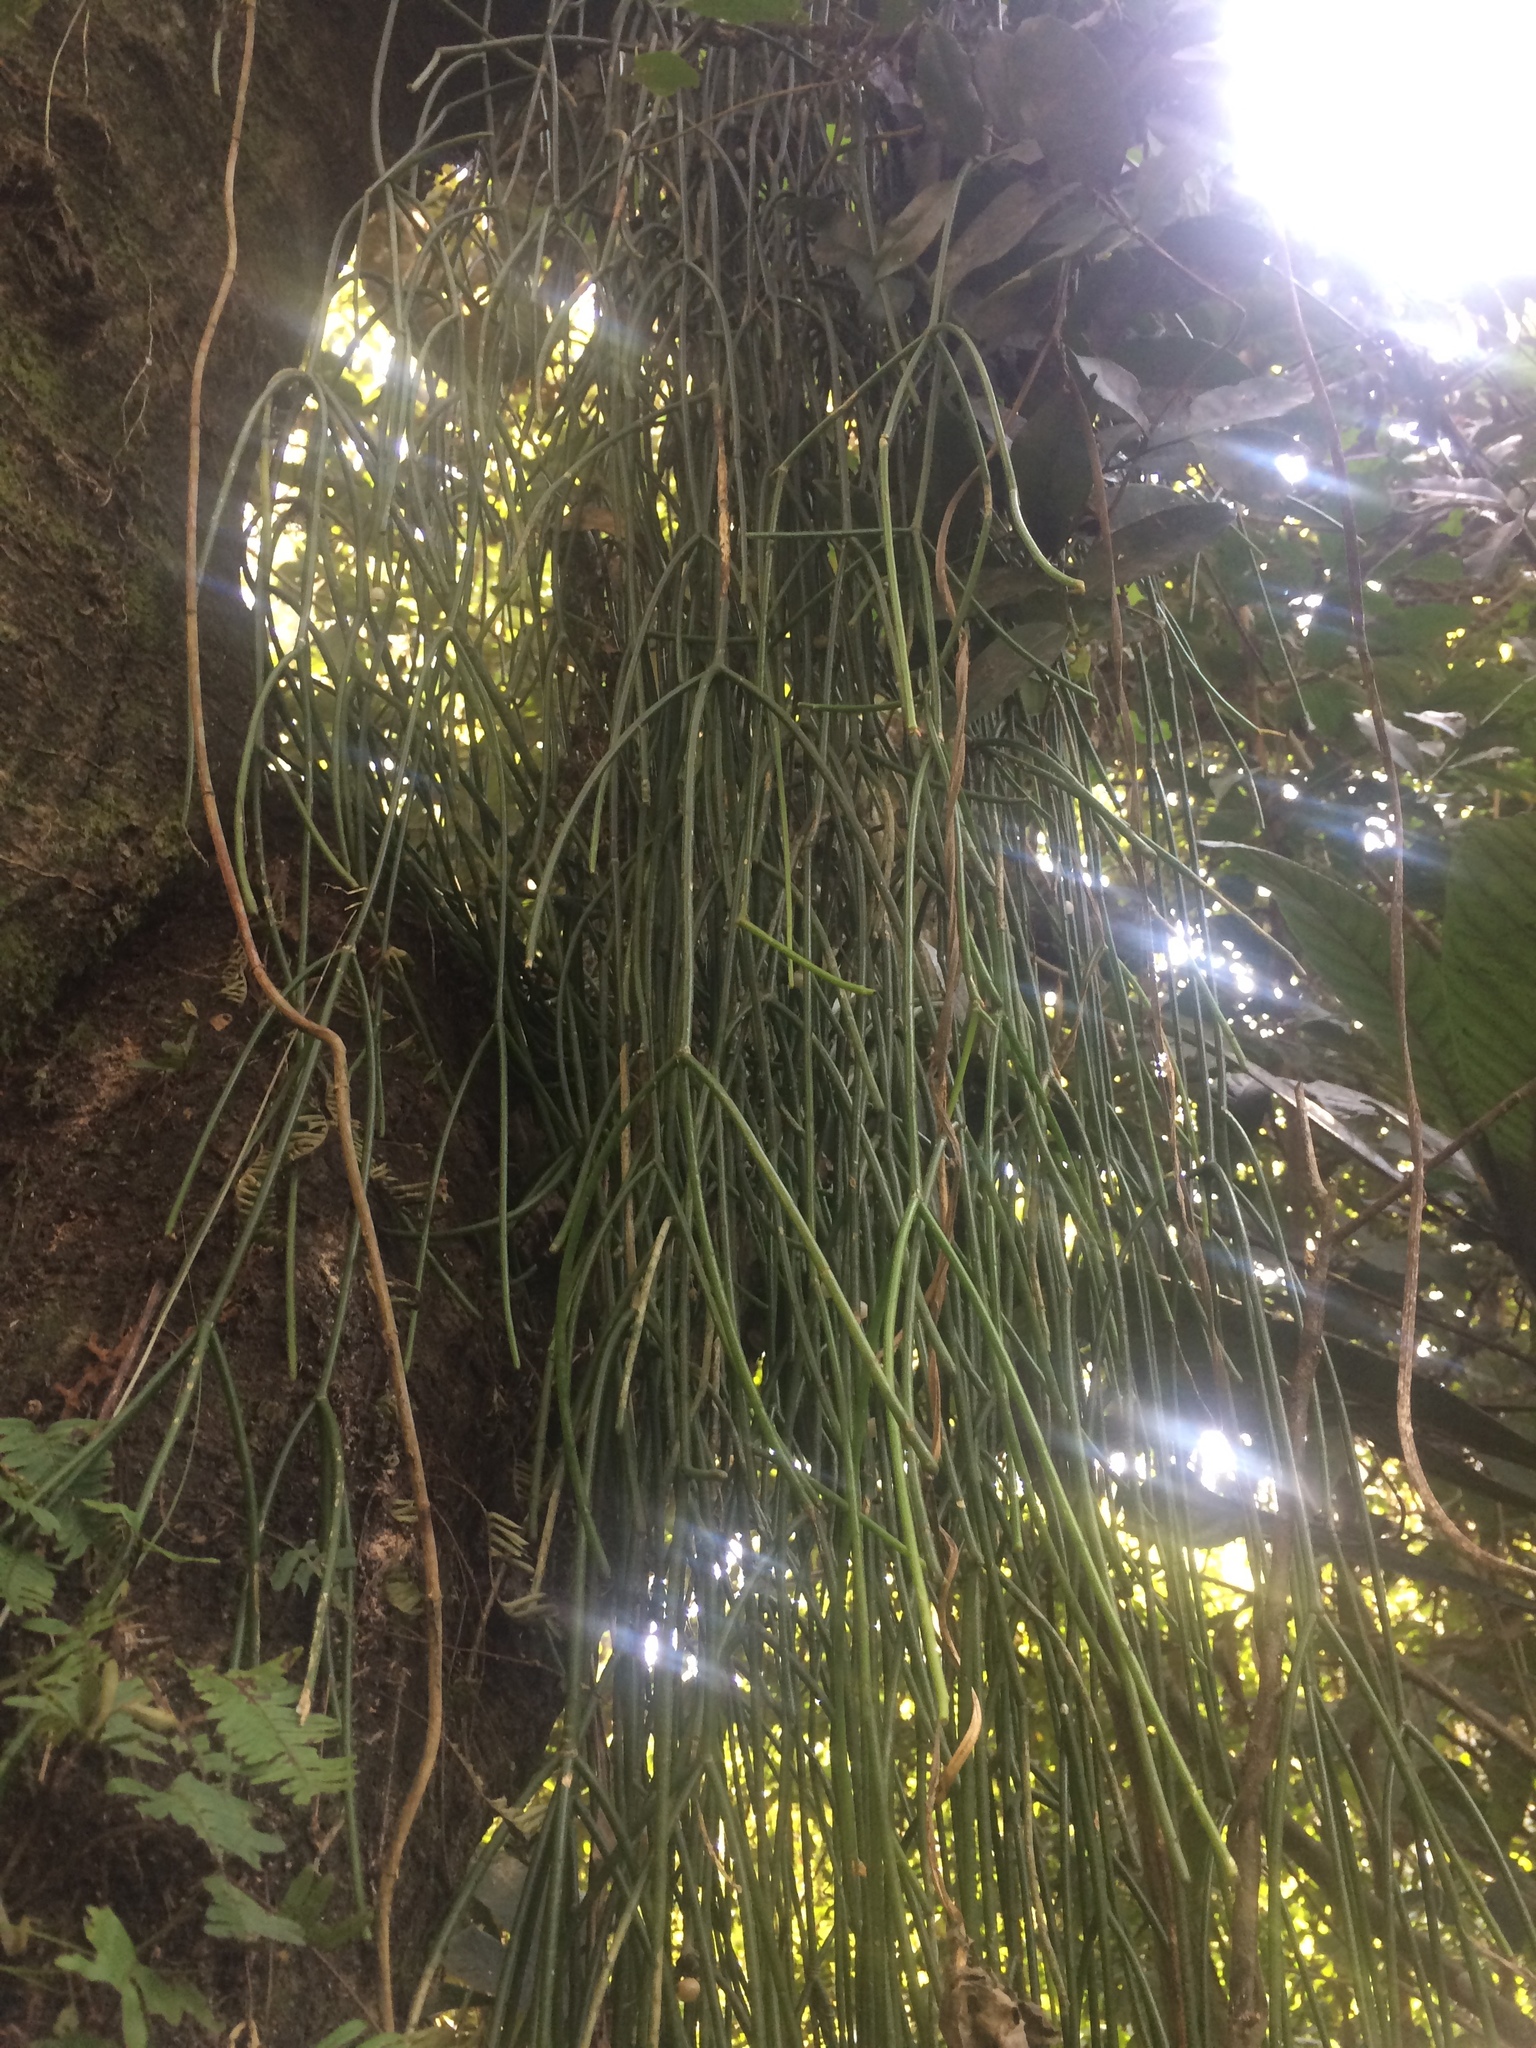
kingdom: Plantae
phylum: Tracheophyta
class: Magnoliopsida
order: Caryophyllales
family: Cactaceae
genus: Rhipsalis
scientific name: Rhipsalis baccifera
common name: Mistletoe cactus
